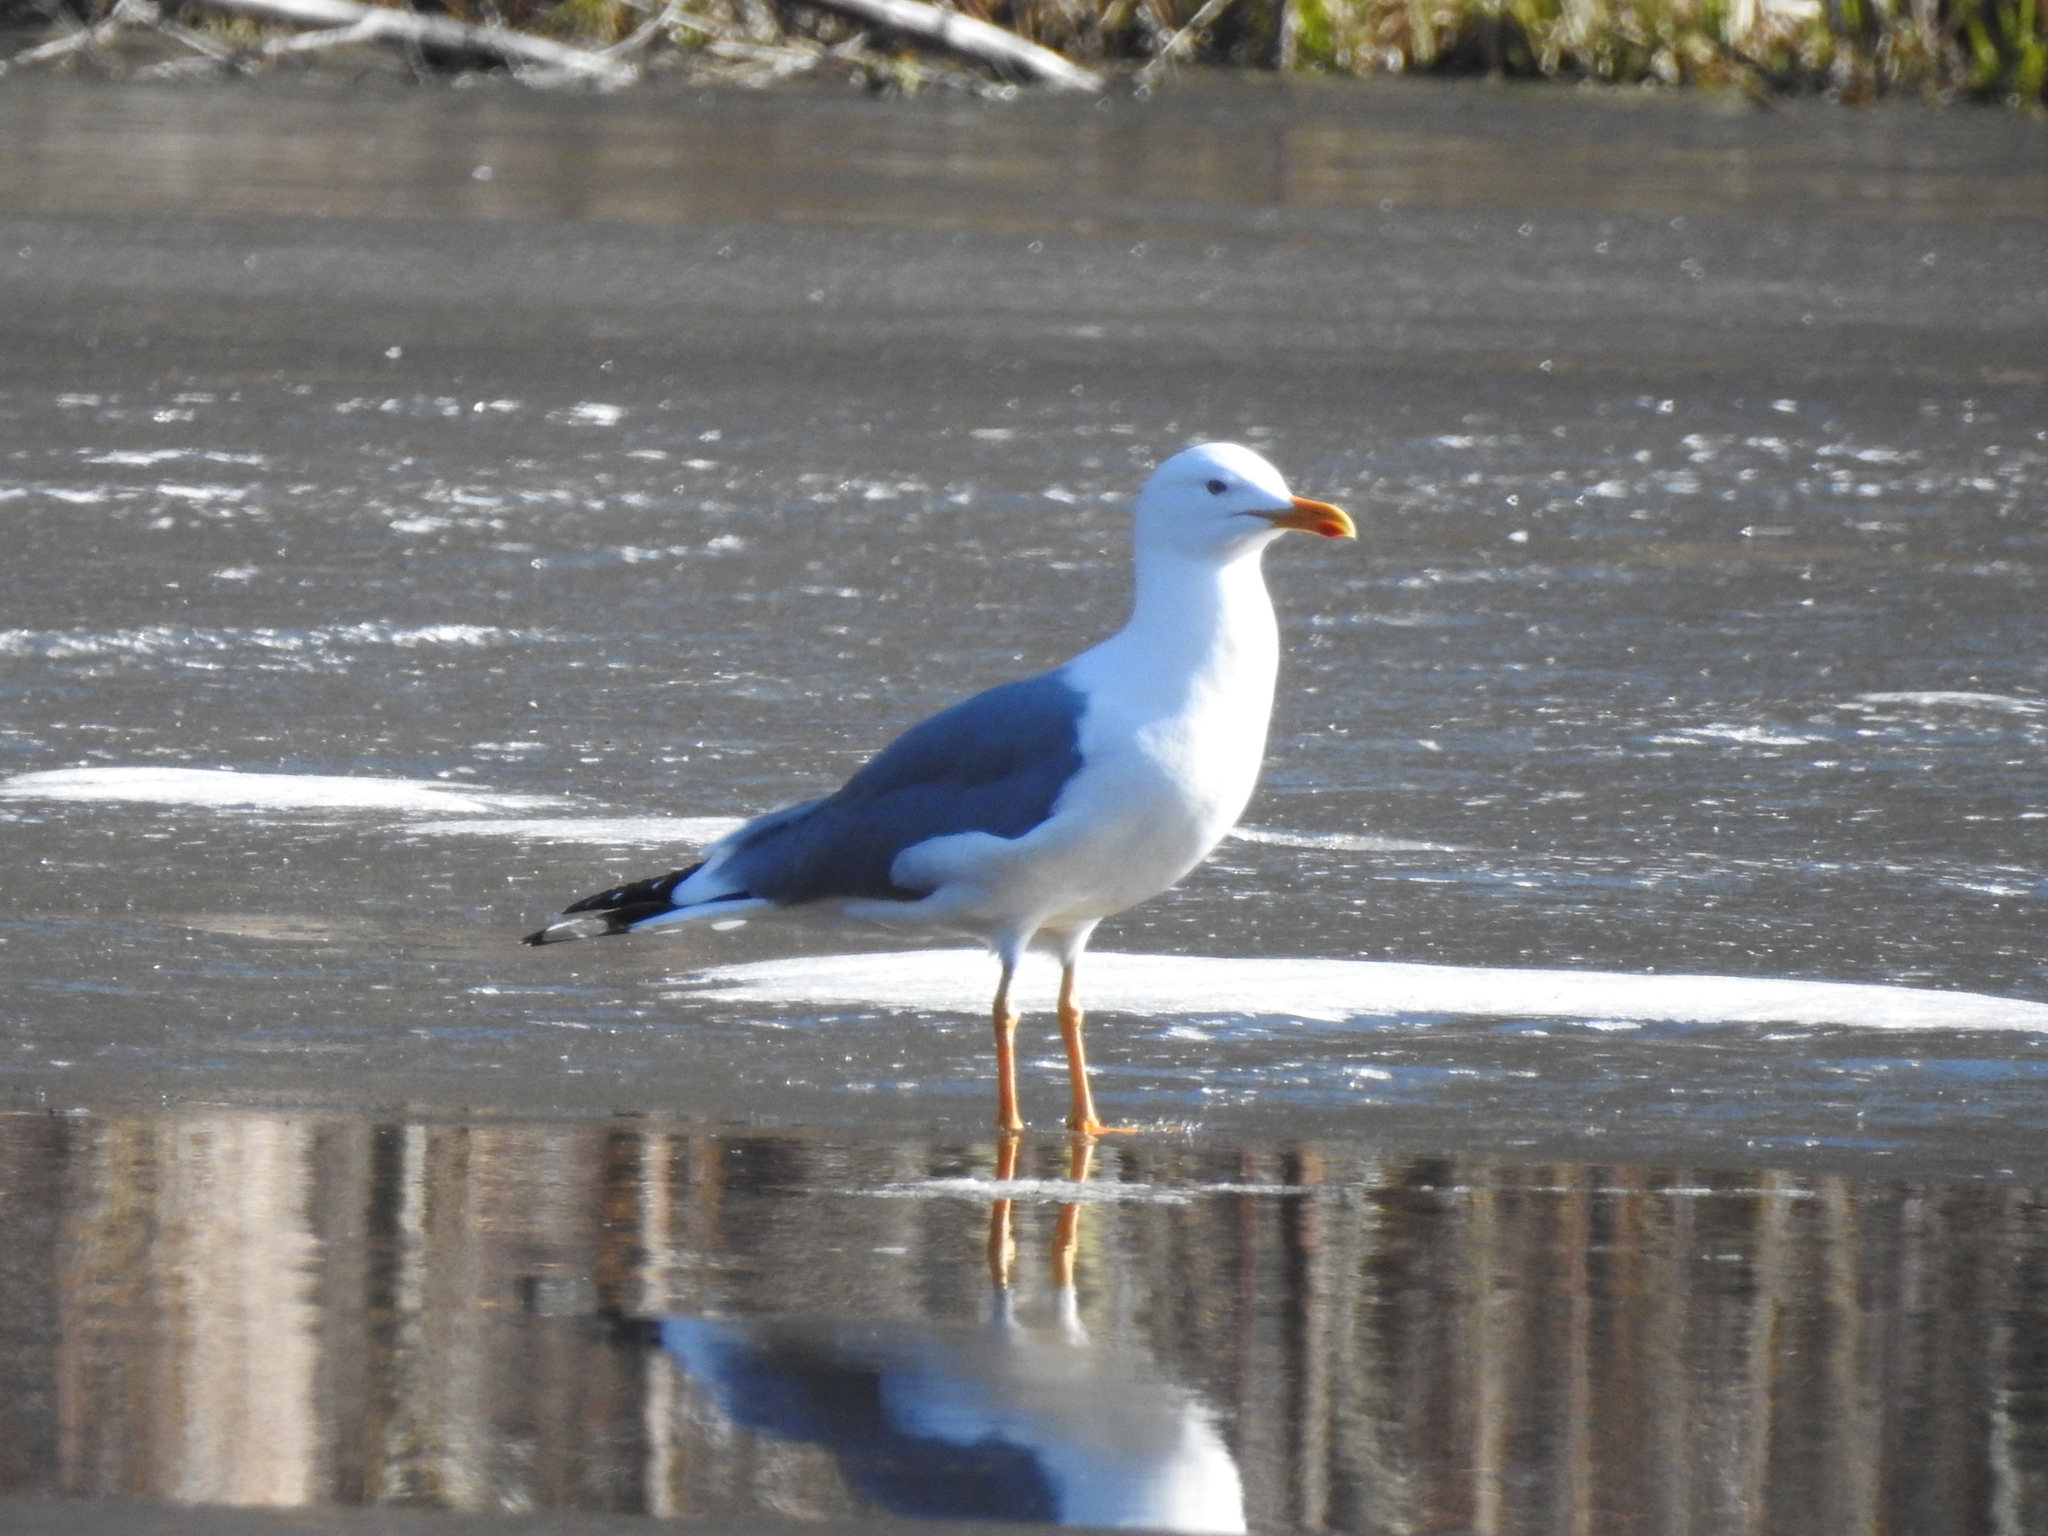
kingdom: Animalia
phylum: Chordata
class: Aves
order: Charadriiformes
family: Laridae
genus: Larus
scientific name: Larus fuscus
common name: Lesser black-backed gull
